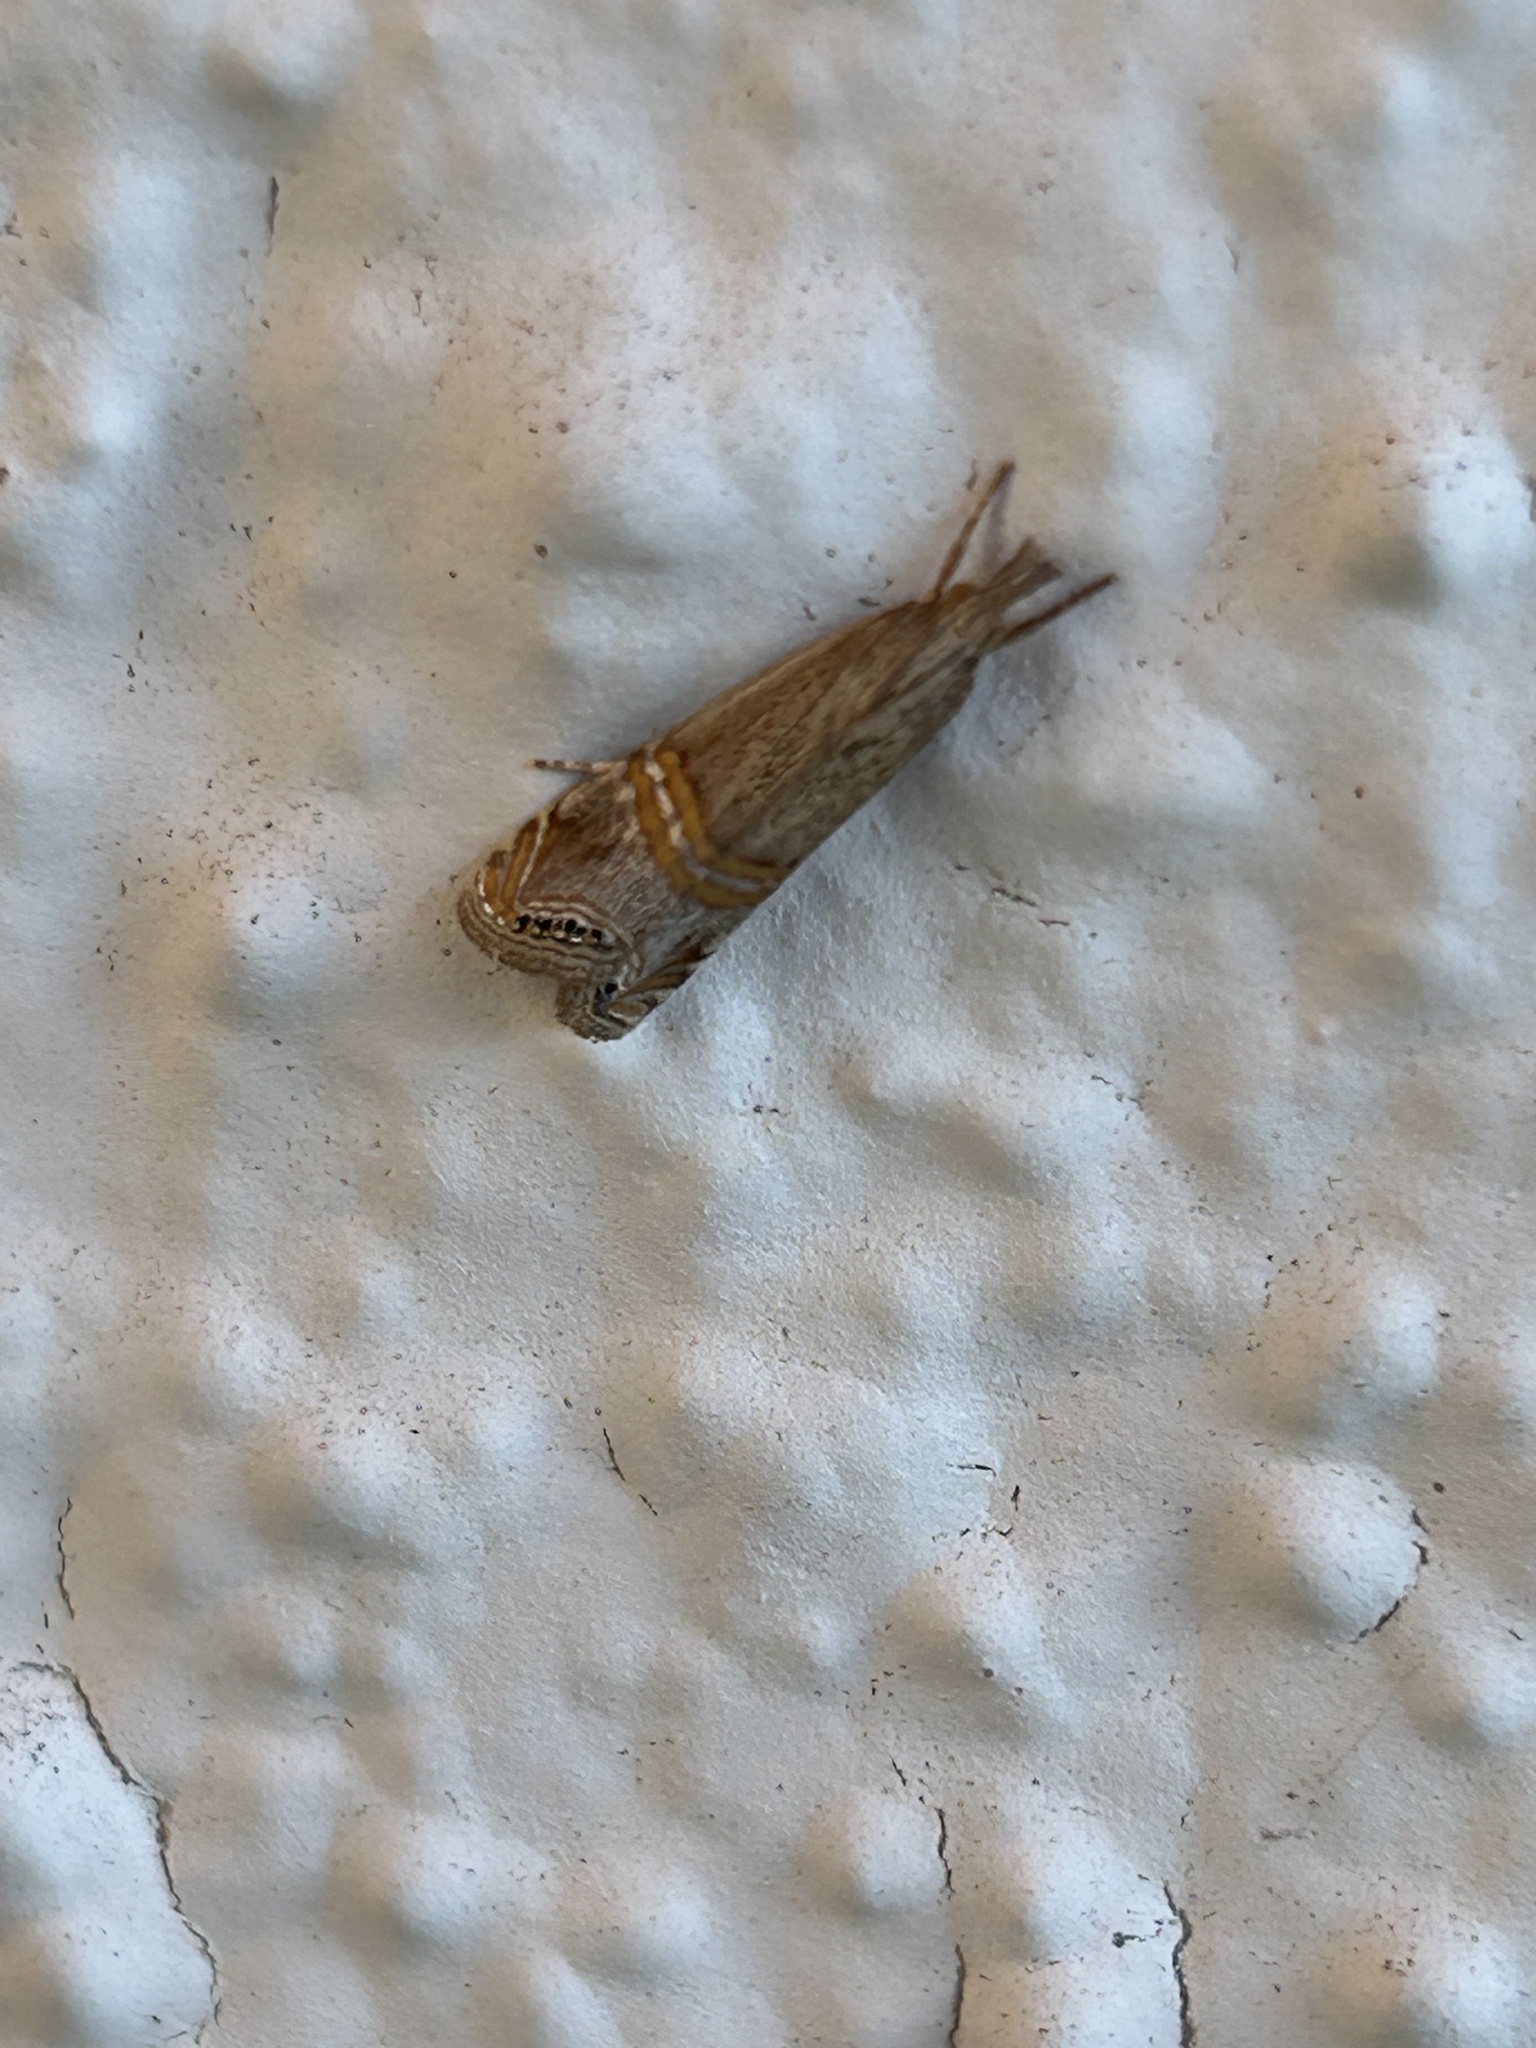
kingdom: Animalia
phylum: Arthropoda
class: Insecta
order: Lepidoptera
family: Crambidae
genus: Euchromius
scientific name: Euchromius ocellea
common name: Necklace veneer moth
